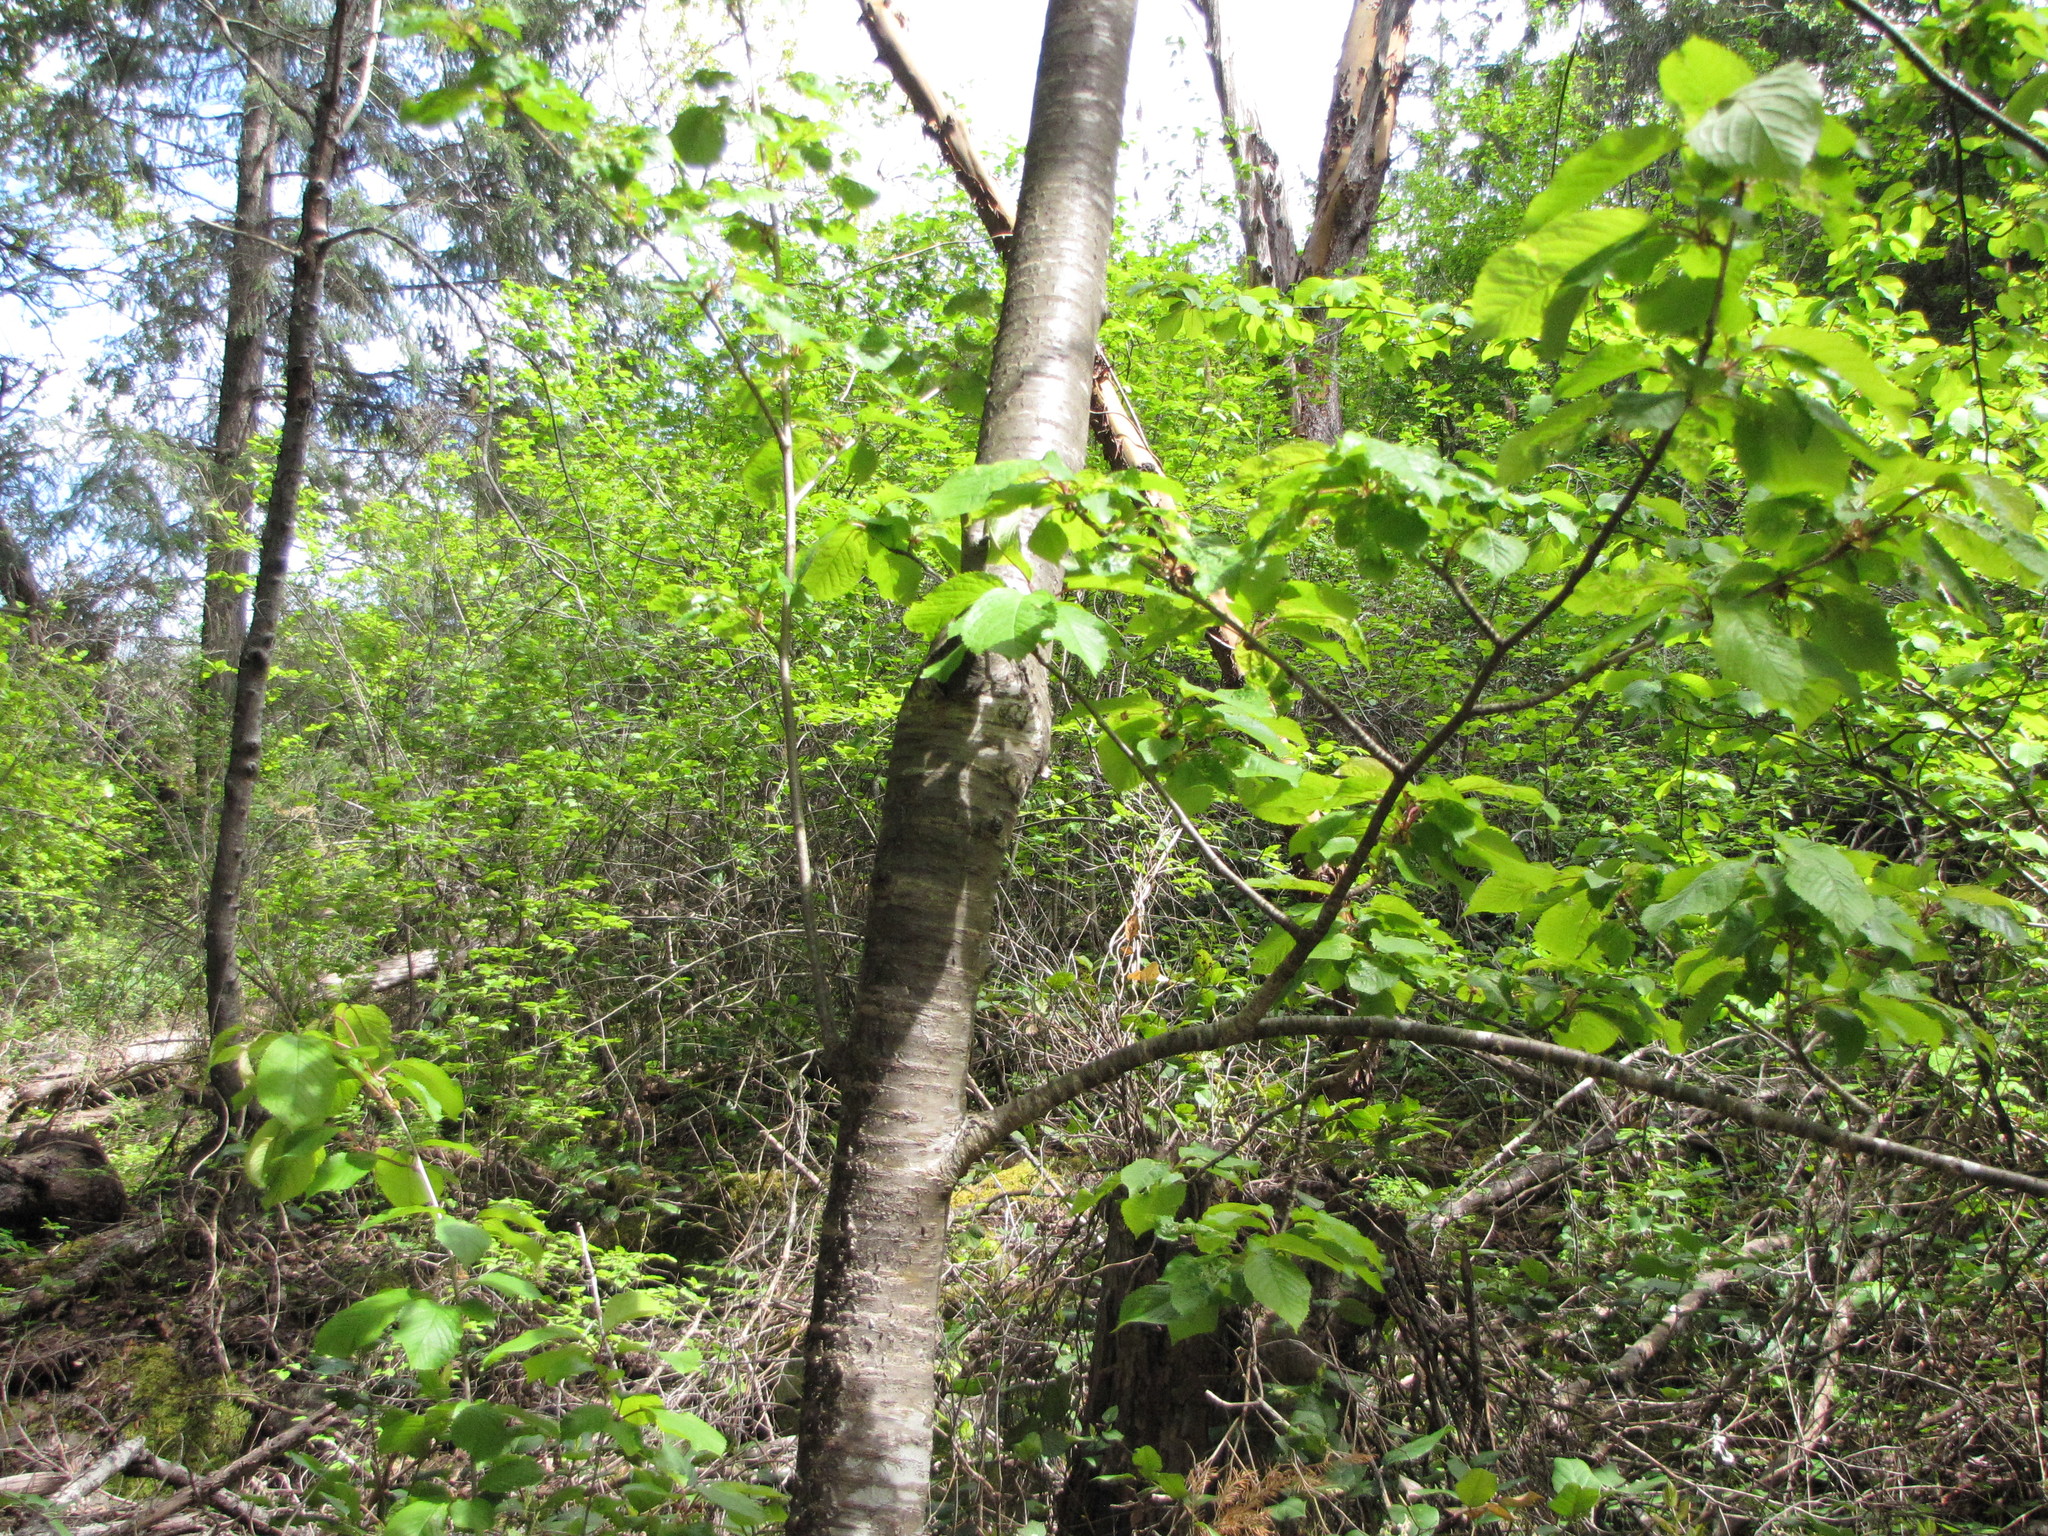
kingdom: Plantae
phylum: Tracheophyta
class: Magnoliopsida
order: Rosales
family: Rosaceae
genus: Prunus
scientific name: Prunus avium
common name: Sweet cherry
